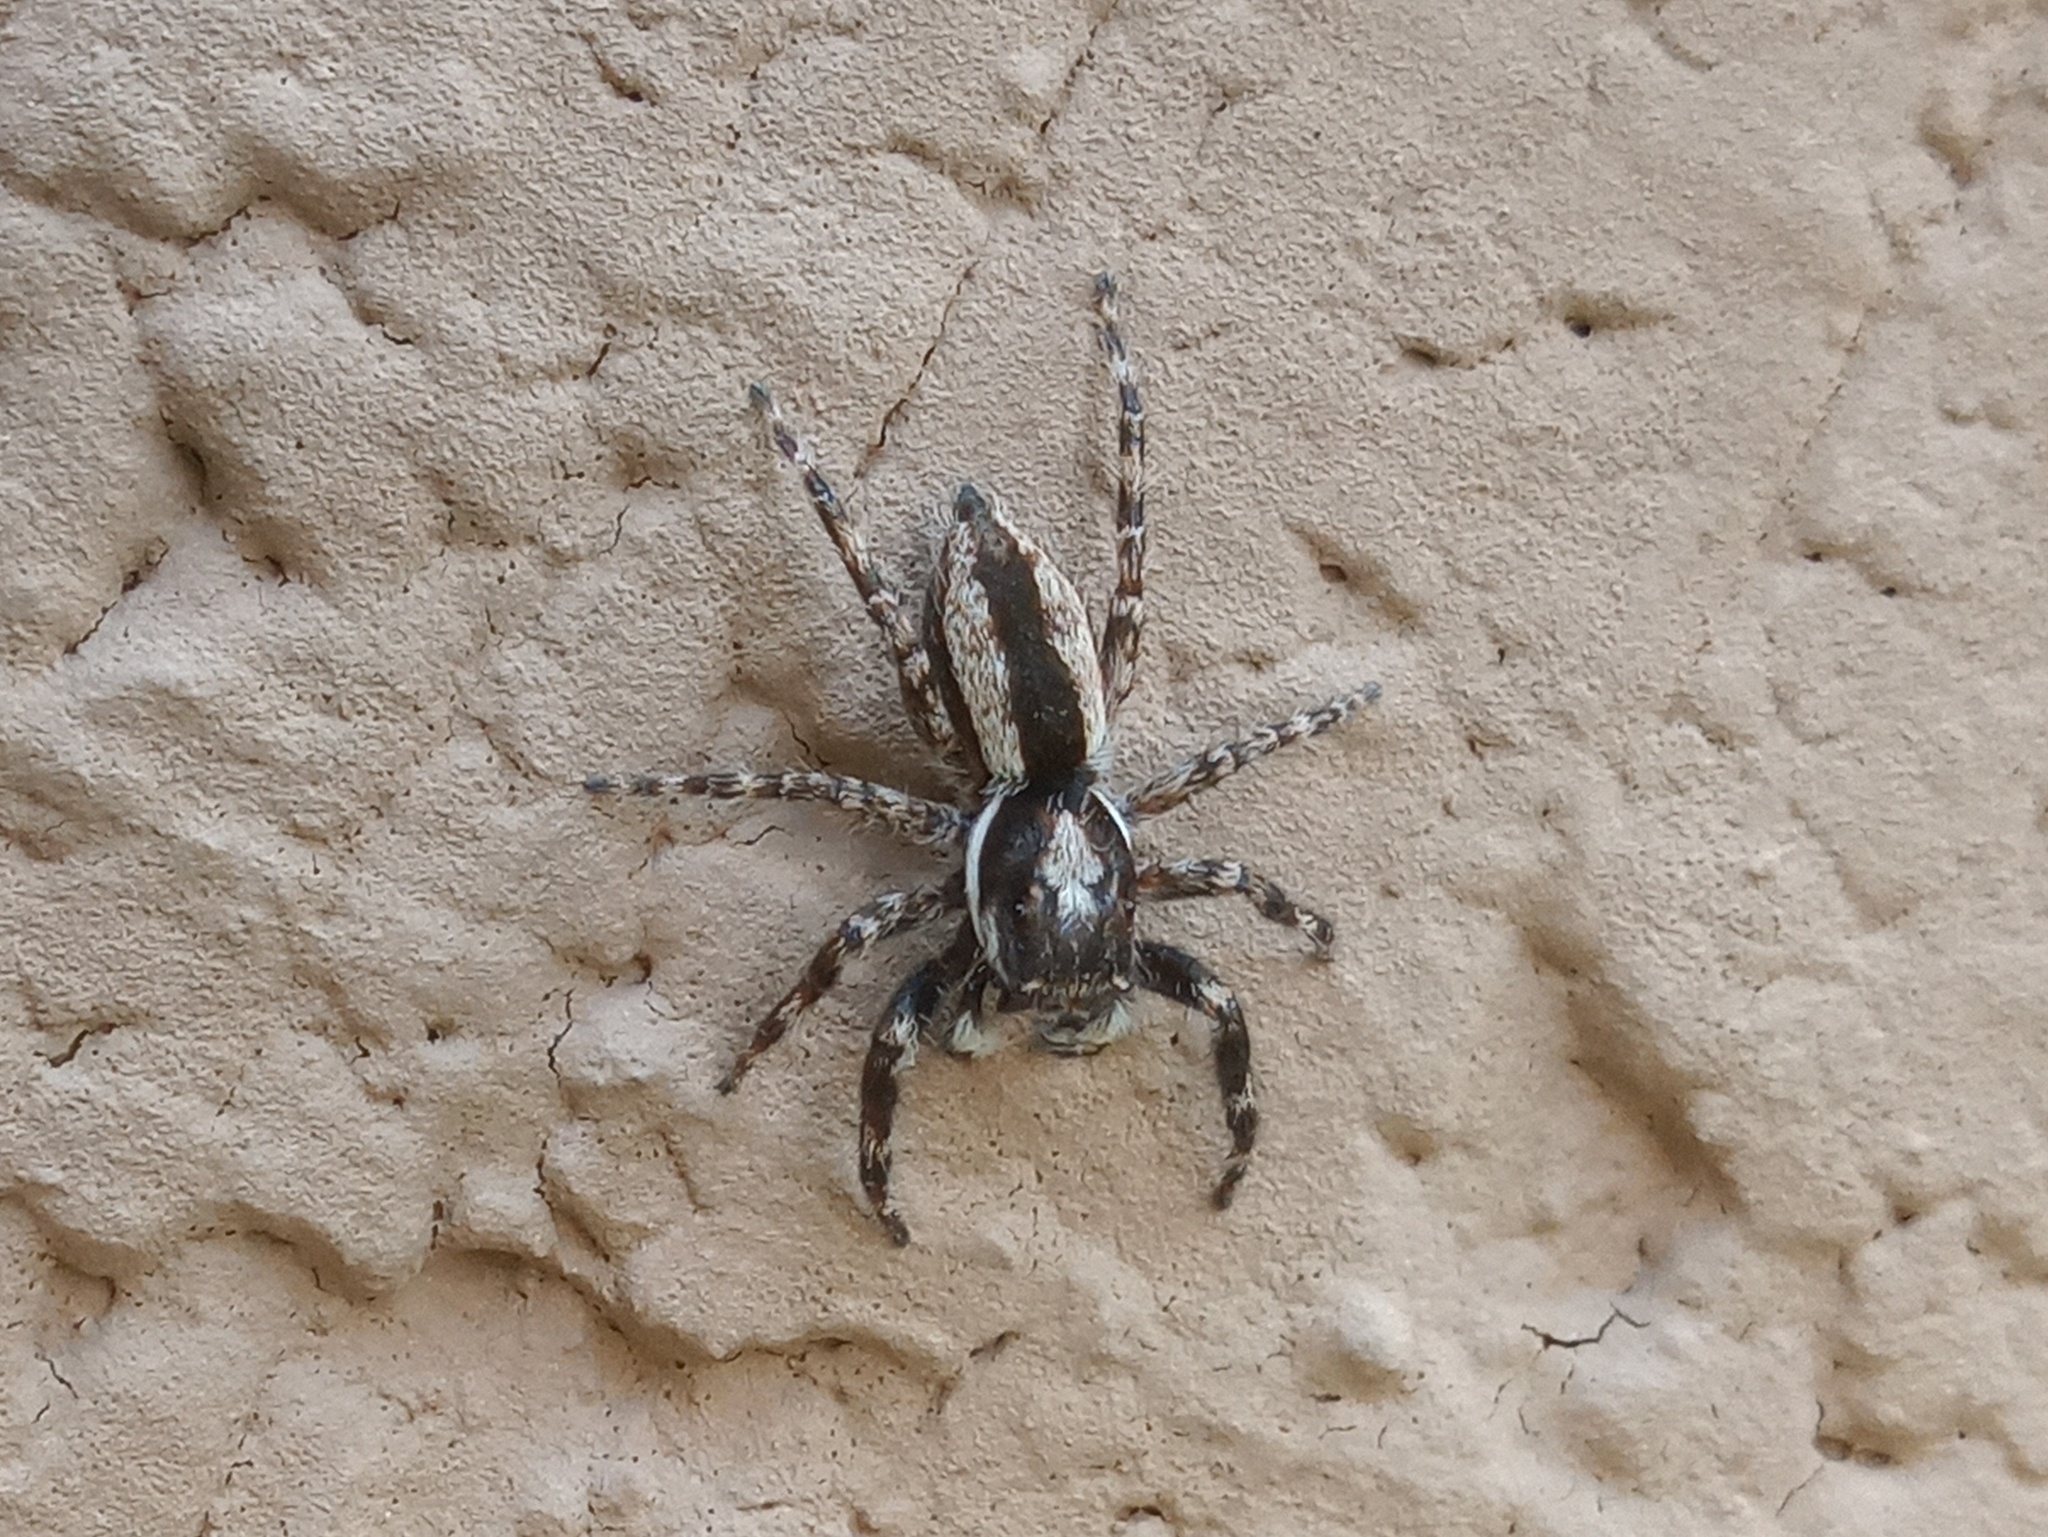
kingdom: Animalia
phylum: Arthropoda
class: Arachnida
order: Araneae
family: Salticidae
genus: Menemerus
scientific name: Menemerus bivittatus
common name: Gray wall jumper
